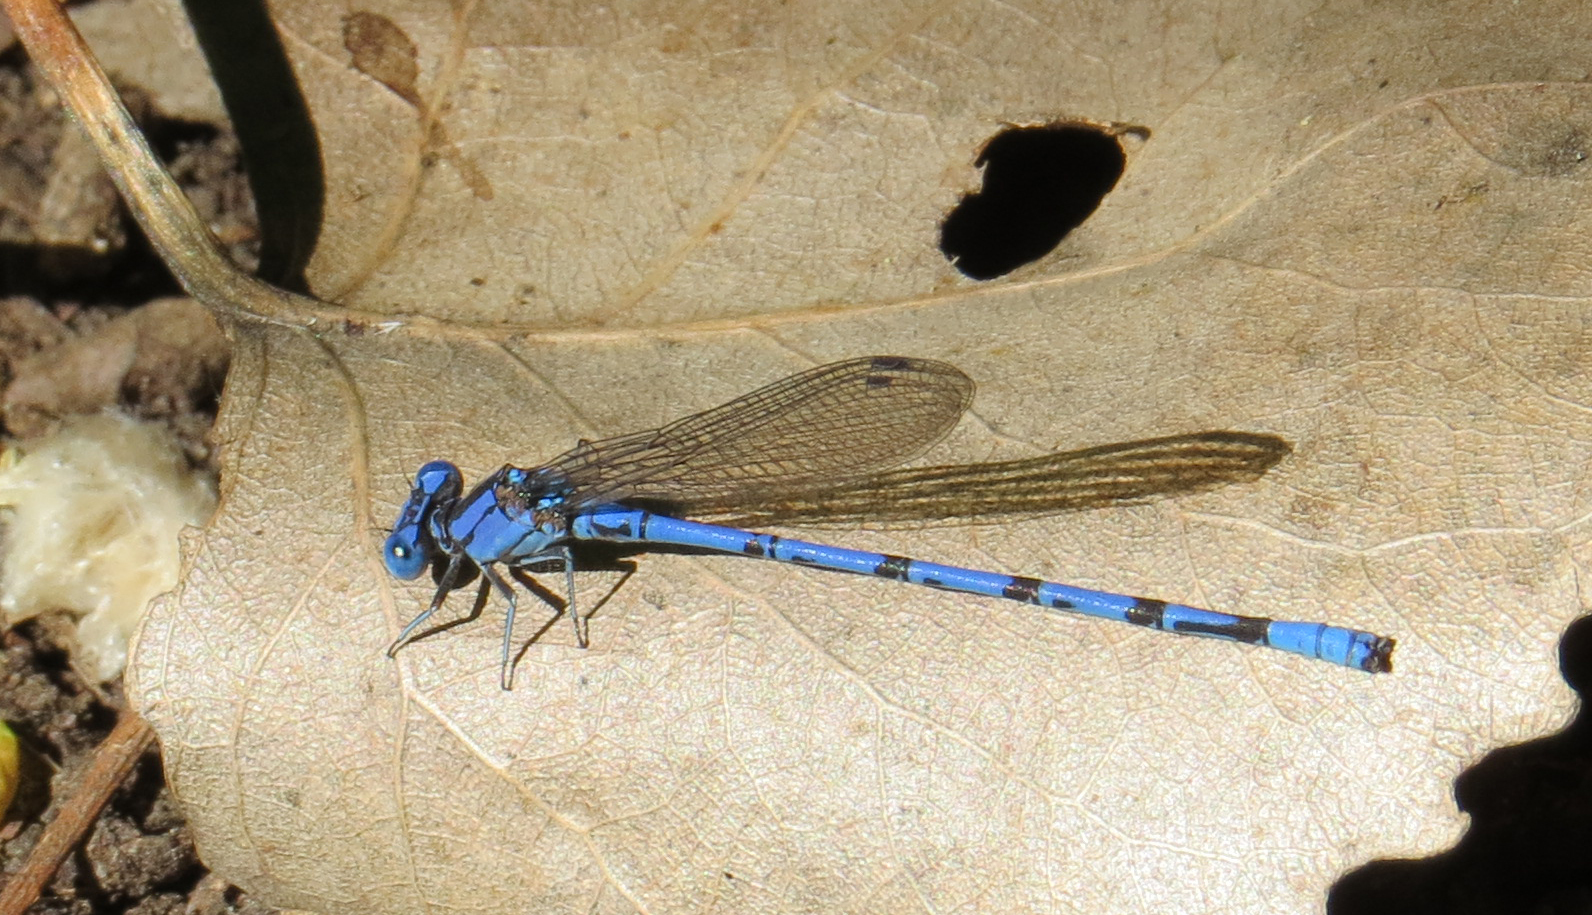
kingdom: Animalia
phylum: Arthropoda
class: Insecta
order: Odonata
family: Coenagrionidae
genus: Argia
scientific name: Argia funebris
